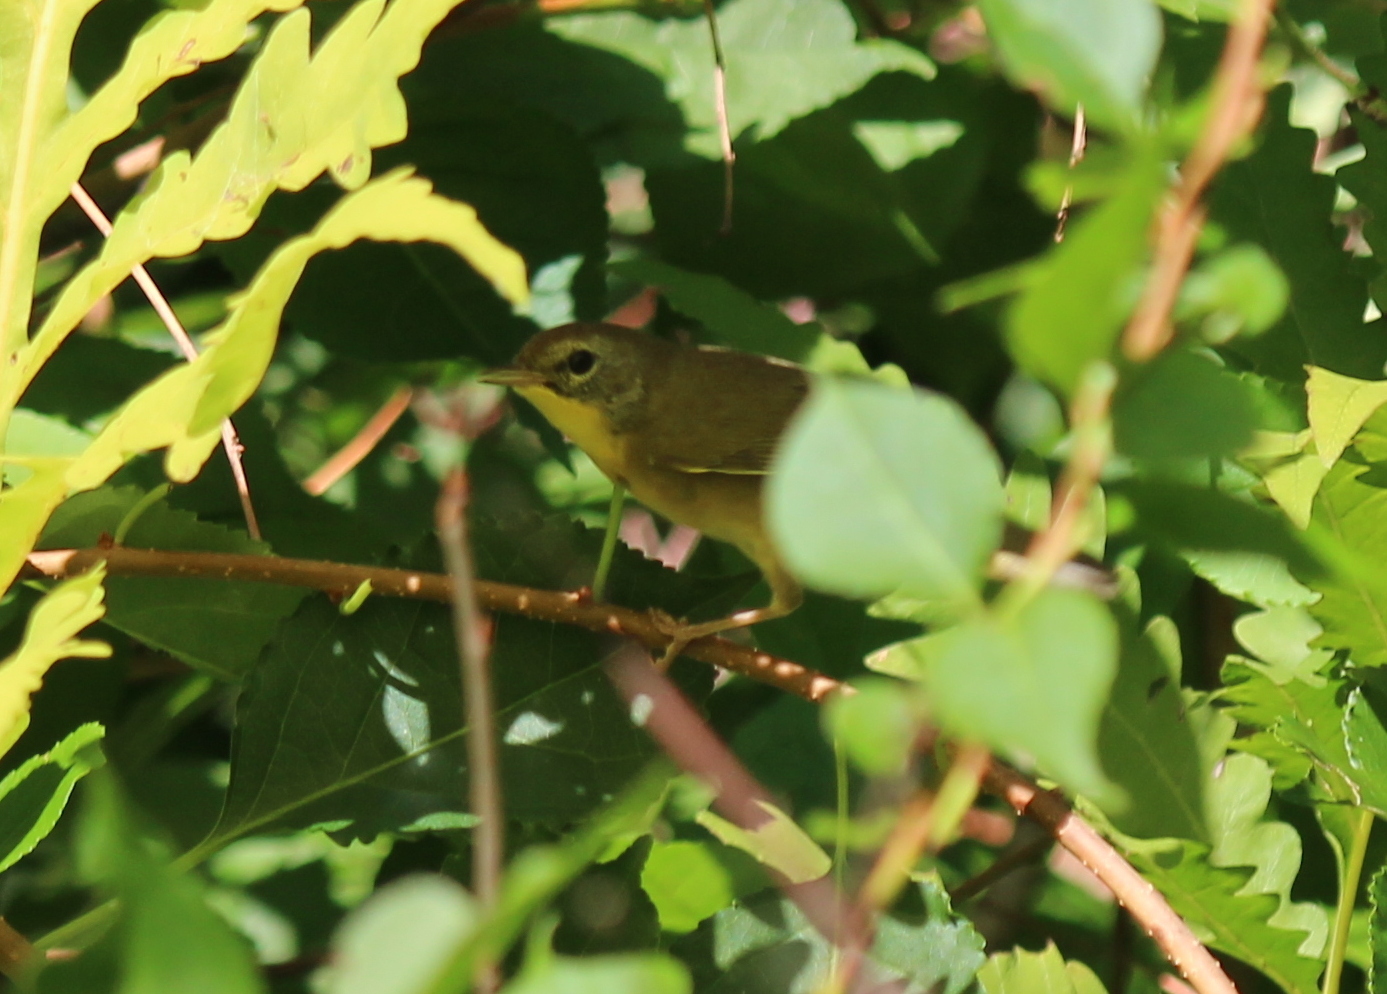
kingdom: Animalia
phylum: Chordata
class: Aves
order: Passeriformes
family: Parulidae
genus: Geothlypis
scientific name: Geothlypis trichas
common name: Common yellowthroat
